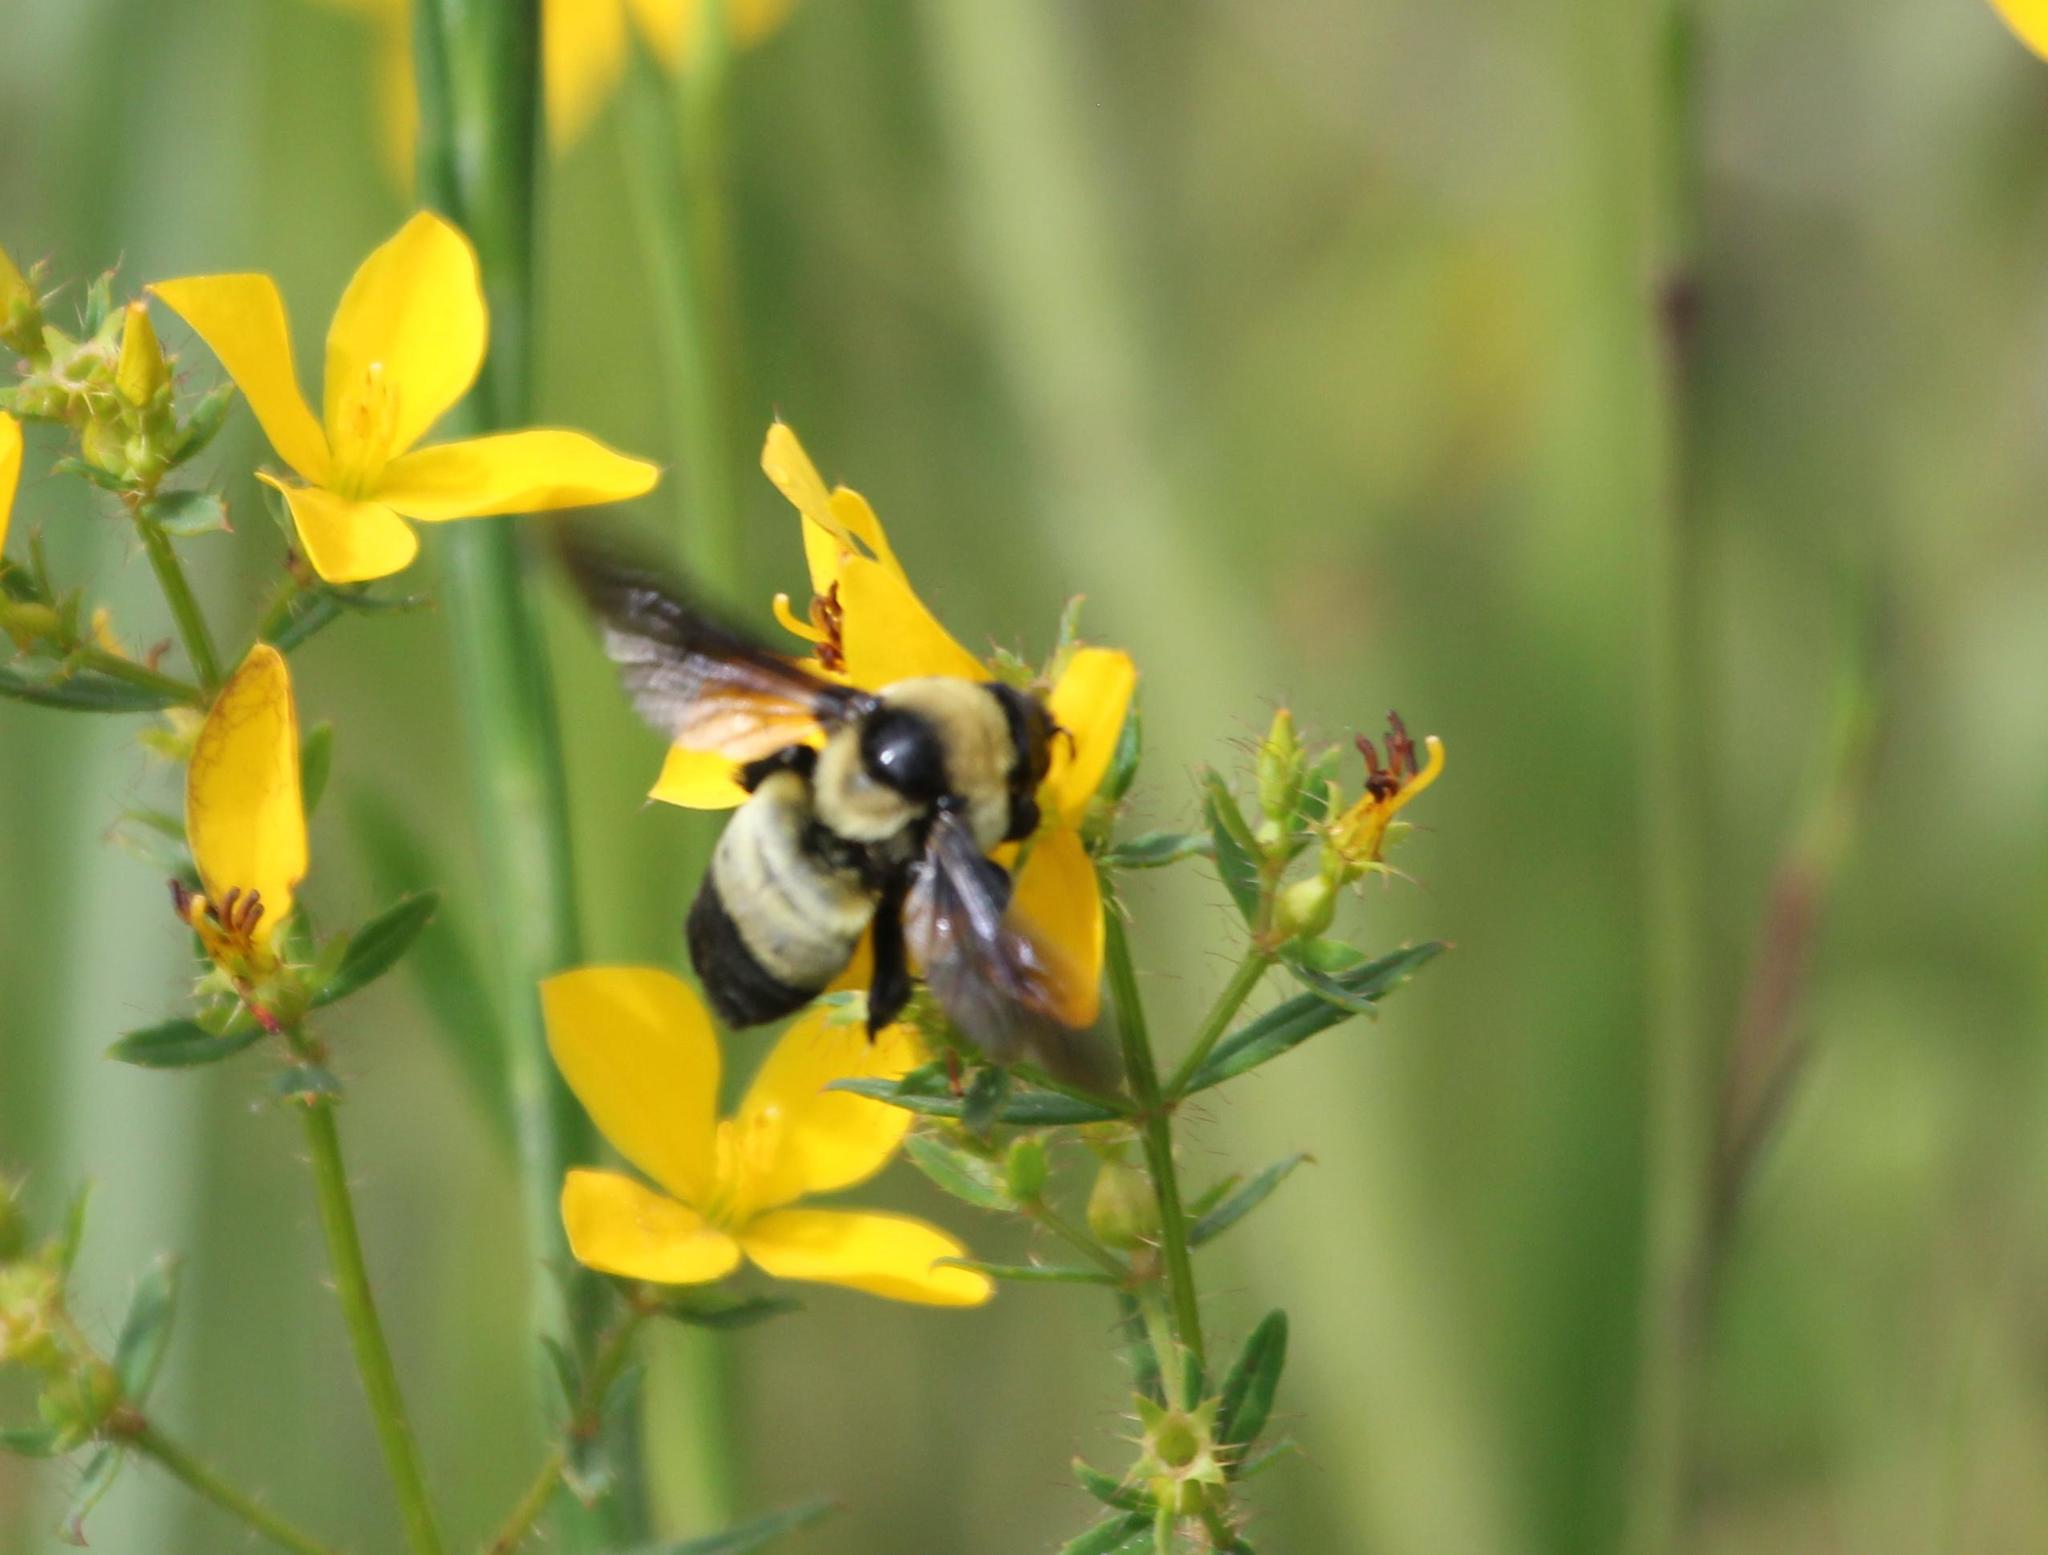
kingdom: Animalia
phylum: Arthropoda
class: Insecta
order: Hymenoptera
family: Apidae
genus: Bombus
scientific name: Bombus fraternus
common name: Southern plains bumble bee
